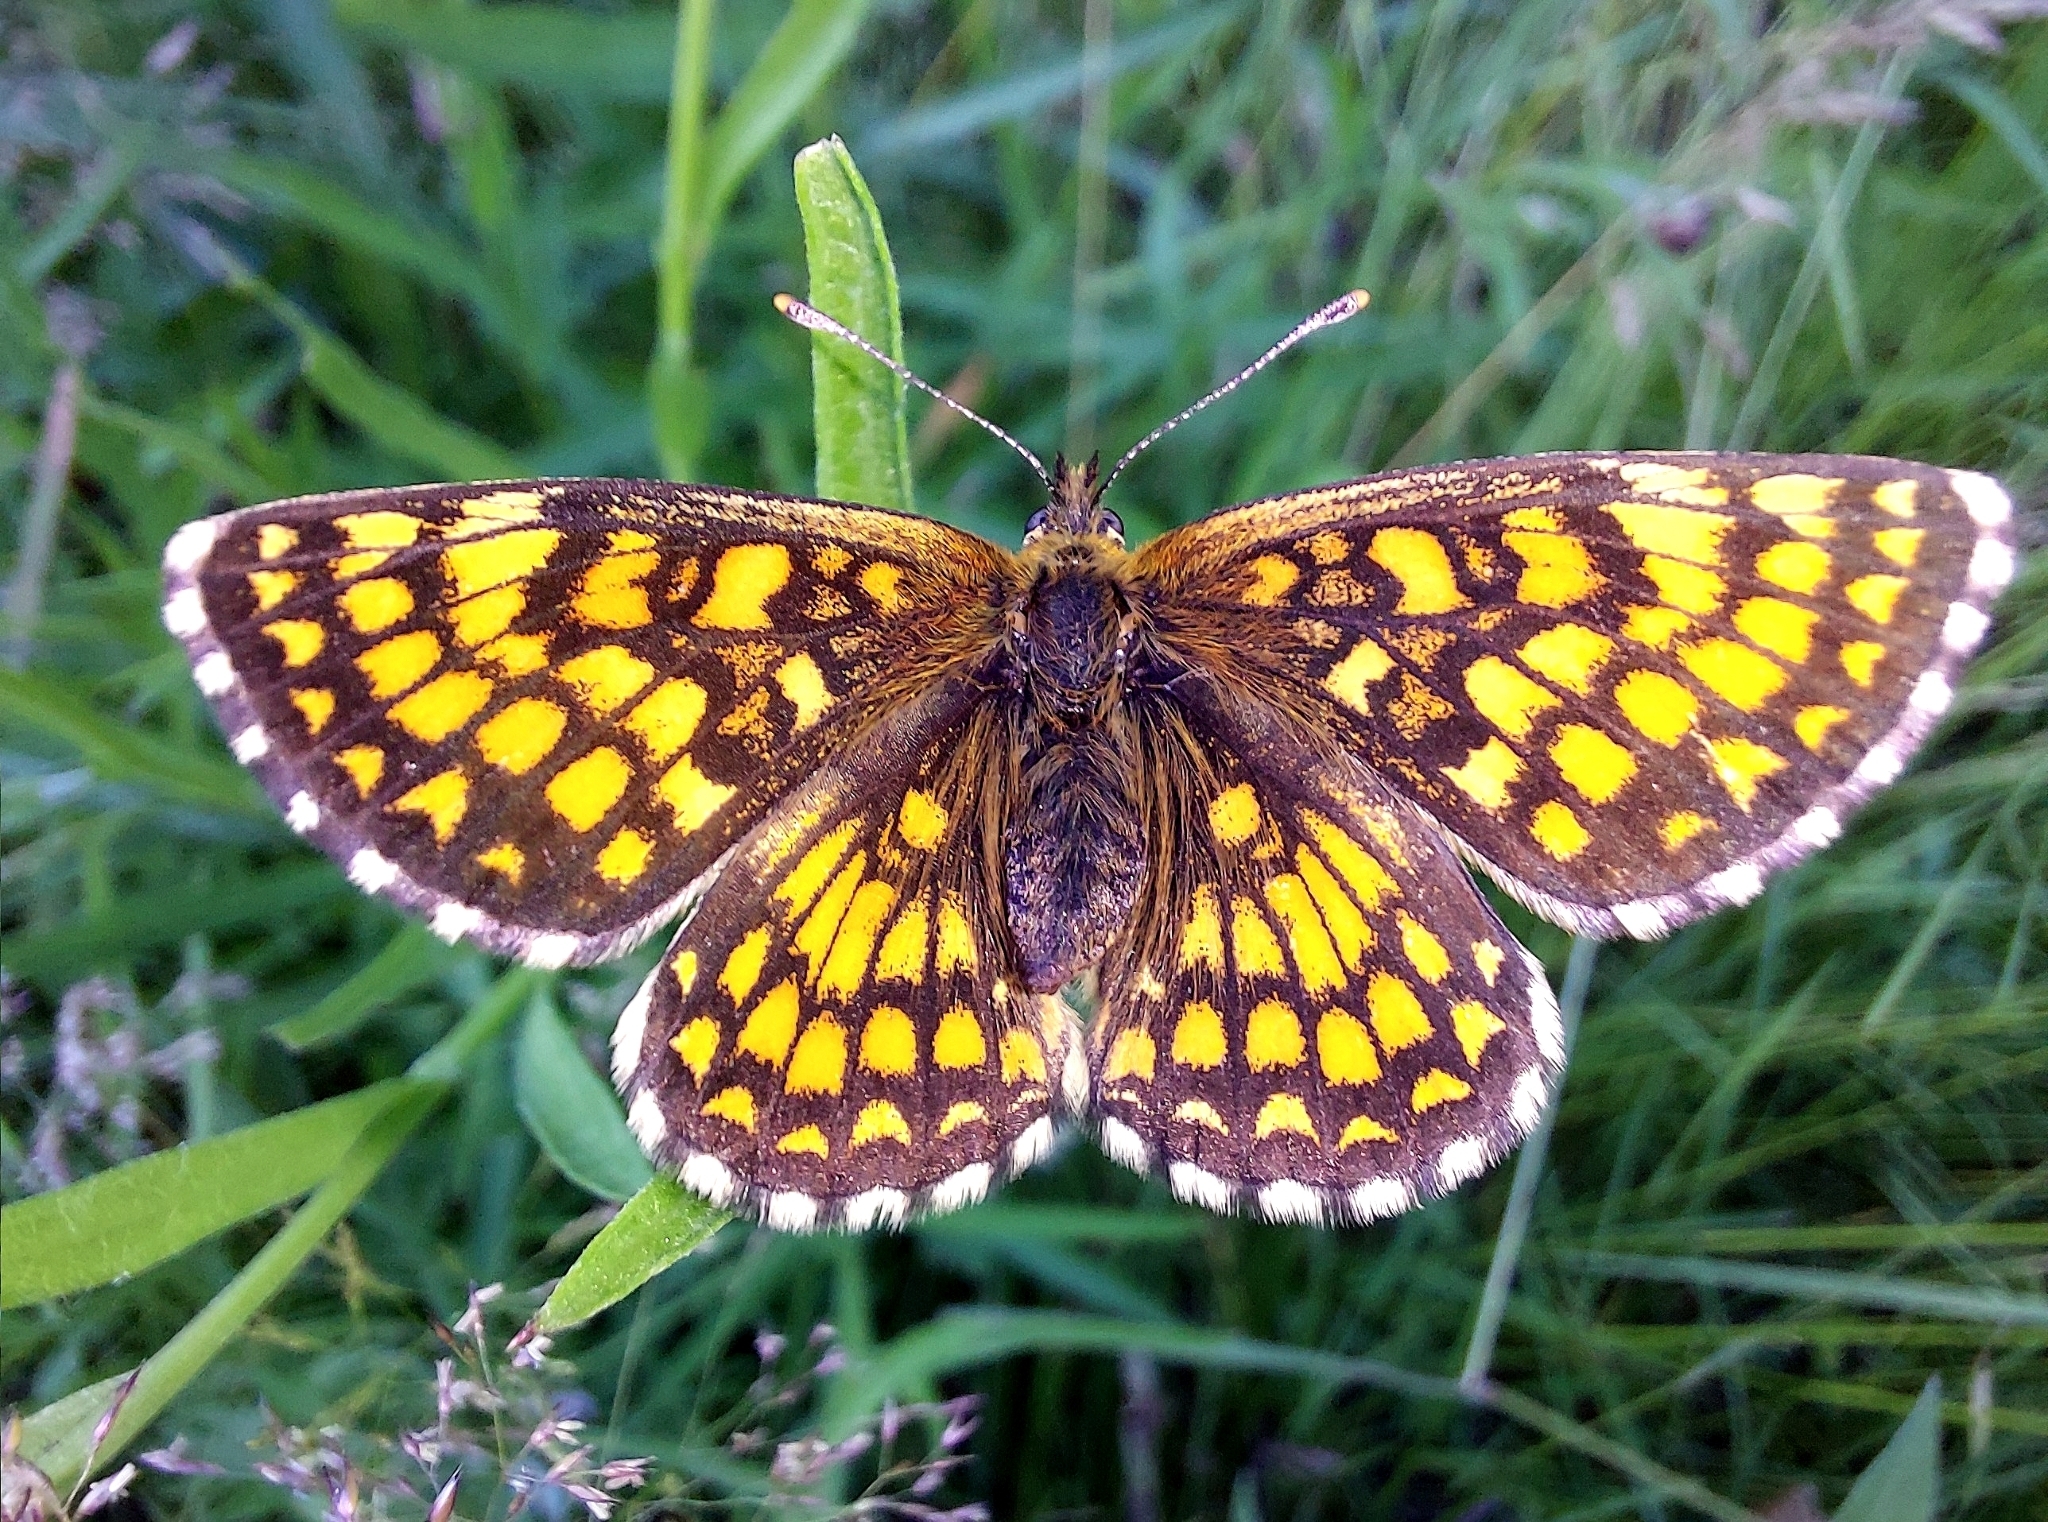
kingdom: Animalia
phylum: Arthropoda
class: Insecta
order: Lepidoptera
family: Nymphalidae
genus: Melitaea
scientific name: Melitaea athalia
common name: Heath fritillary
